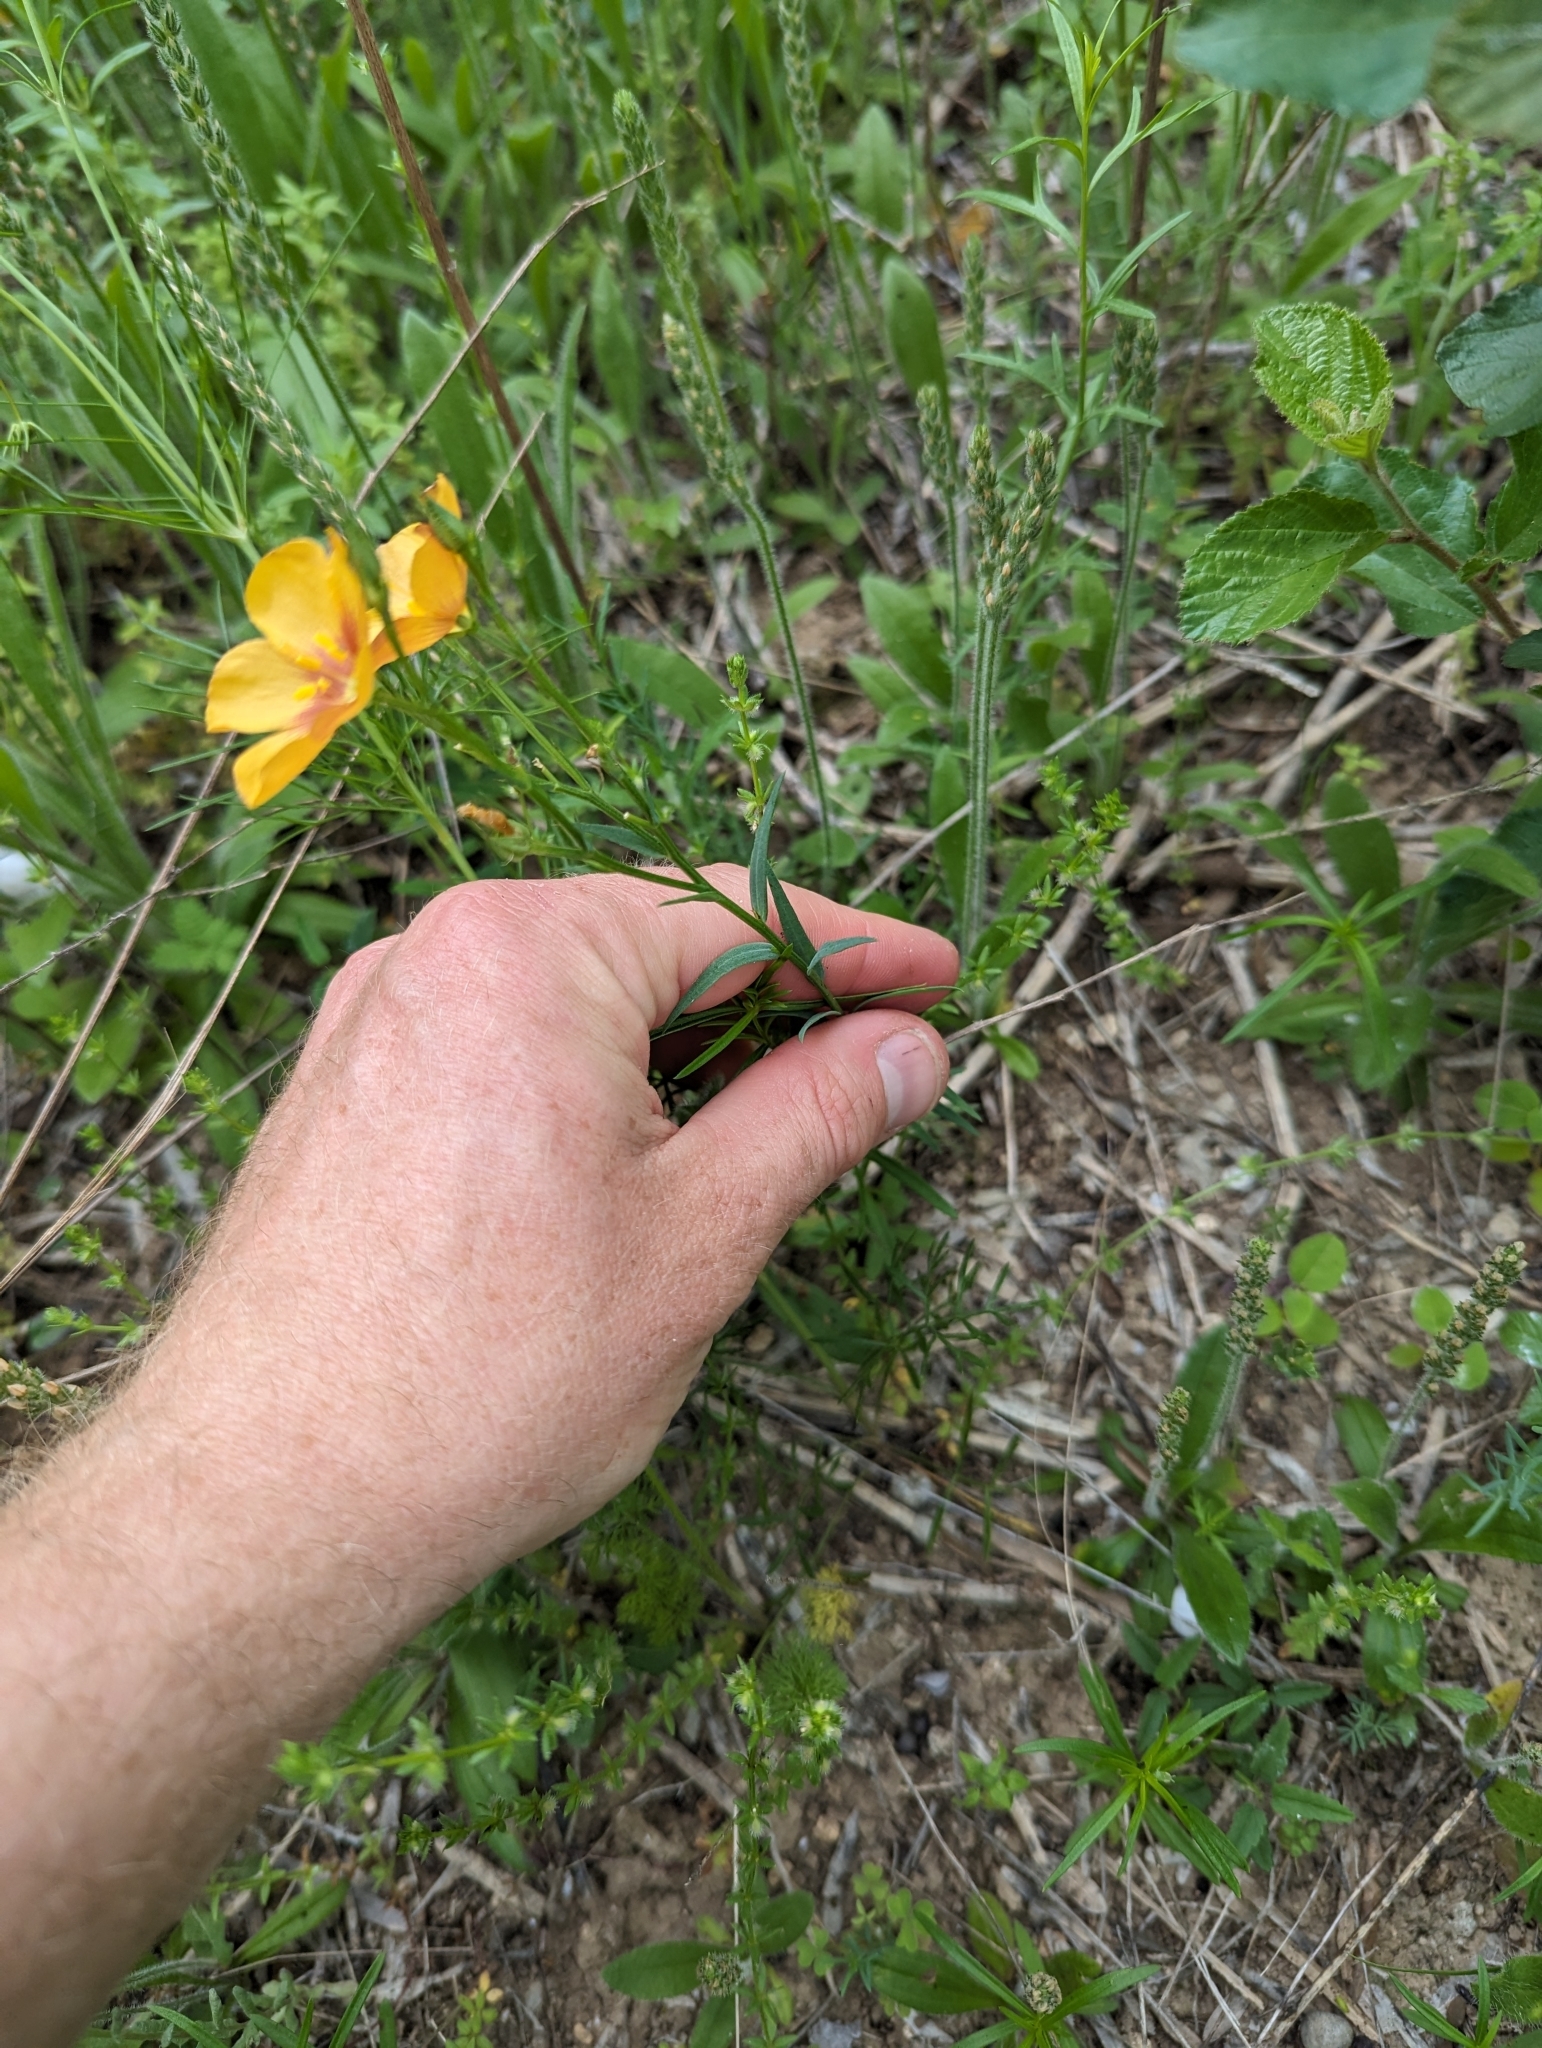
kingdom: Plantae
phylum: Tracheophyta
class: Magnoliopsida
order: Malpighiales
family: Linaceae
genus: Linum
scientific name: Linum berlandieri
